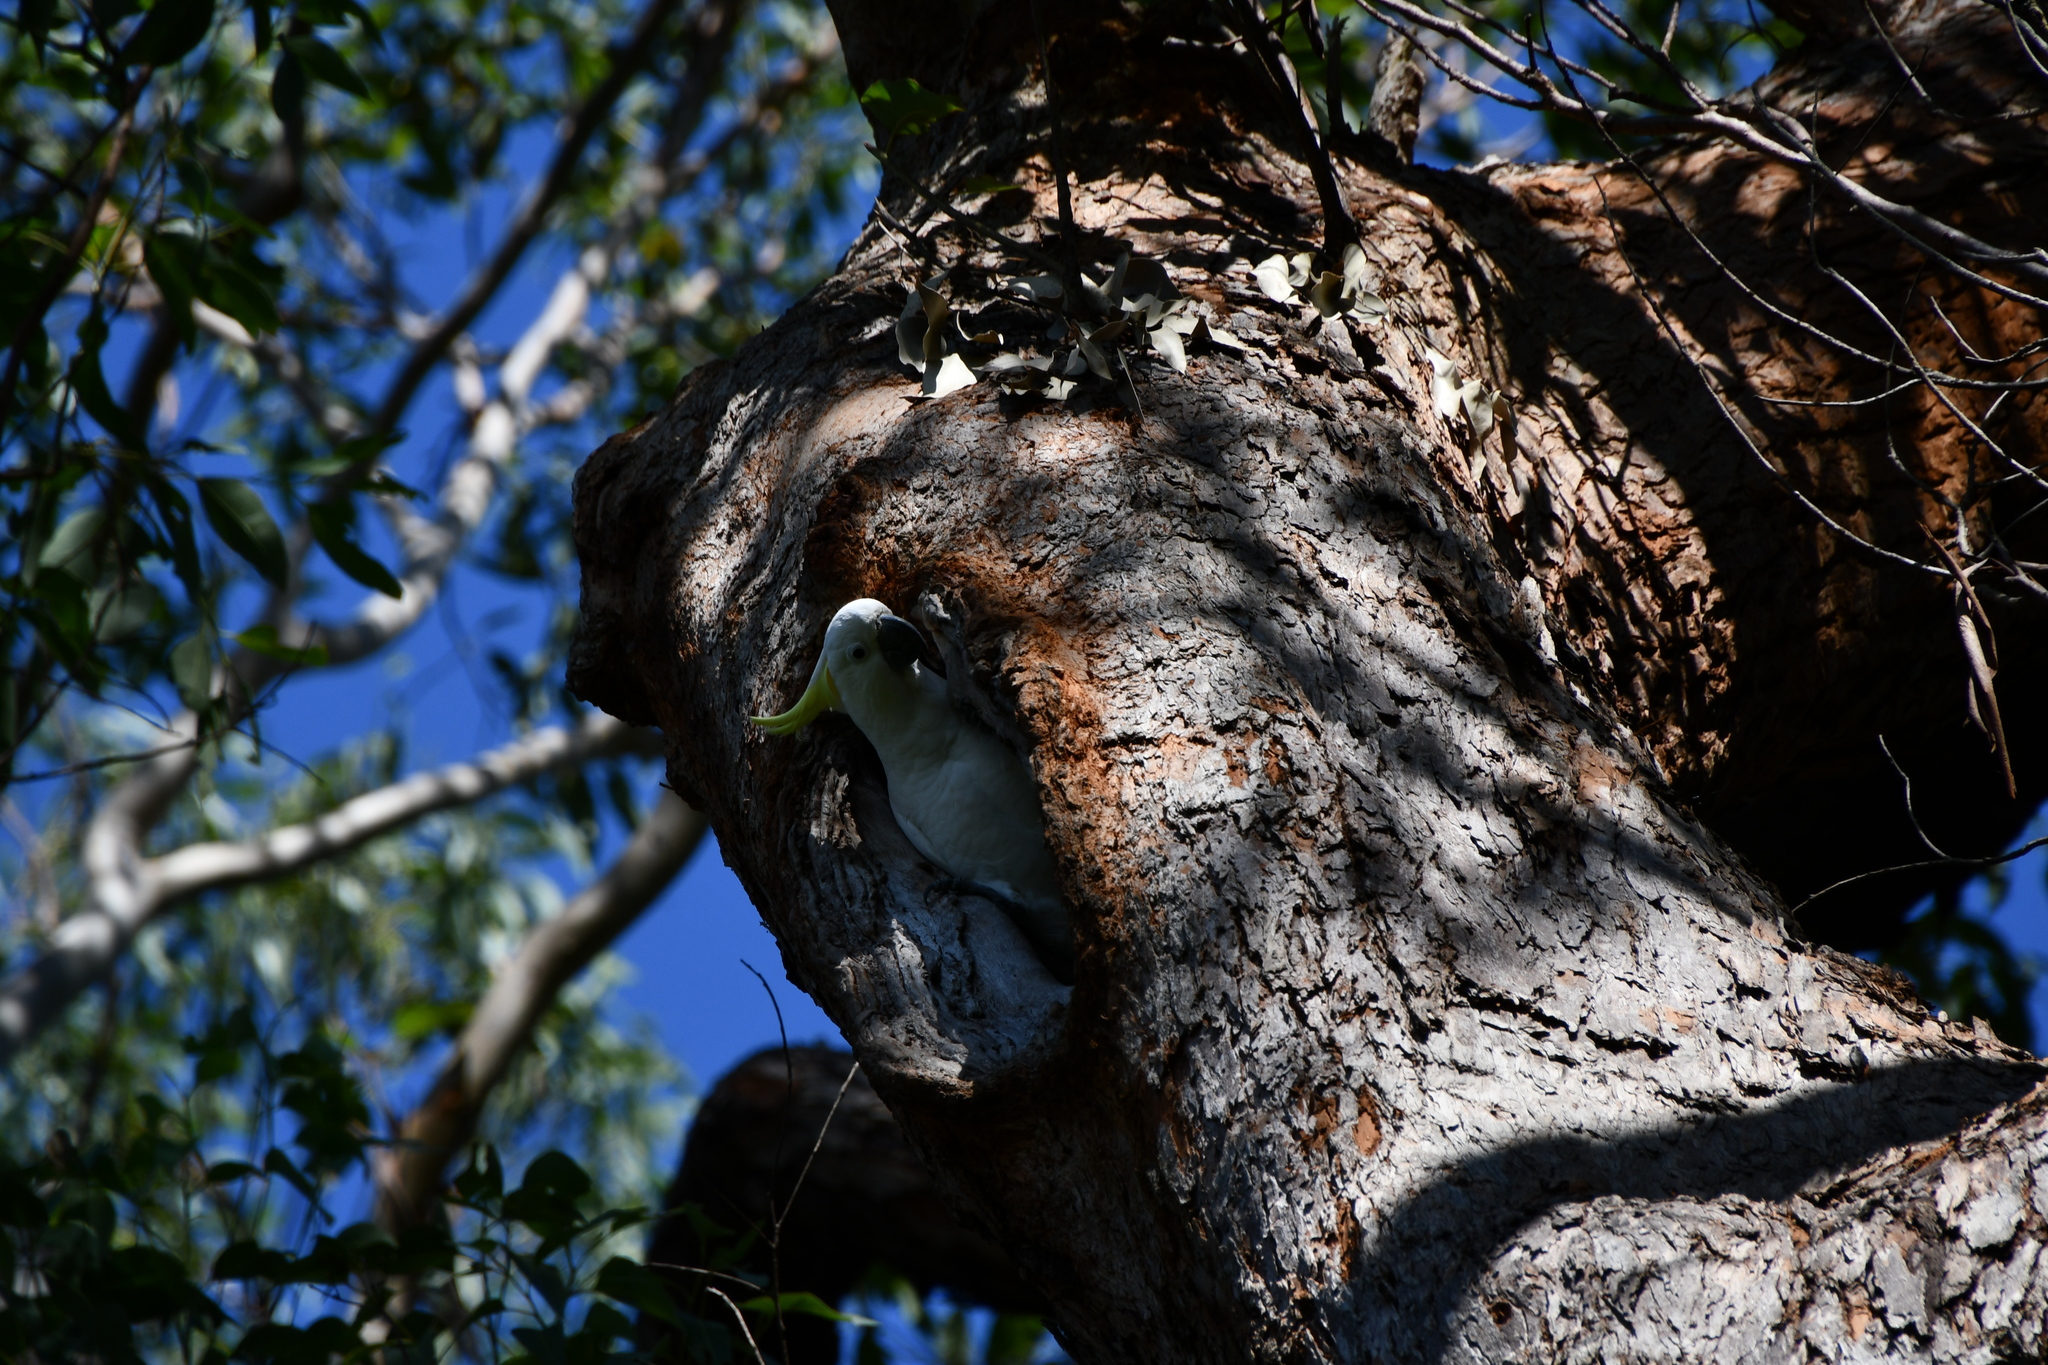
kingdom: Animalia
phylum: Chordata
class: Aves
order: Psittaciformes
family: Psittacidae
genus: Cacatua
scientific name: Cacatua galerita
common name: Sulphur-crested cockatoo
